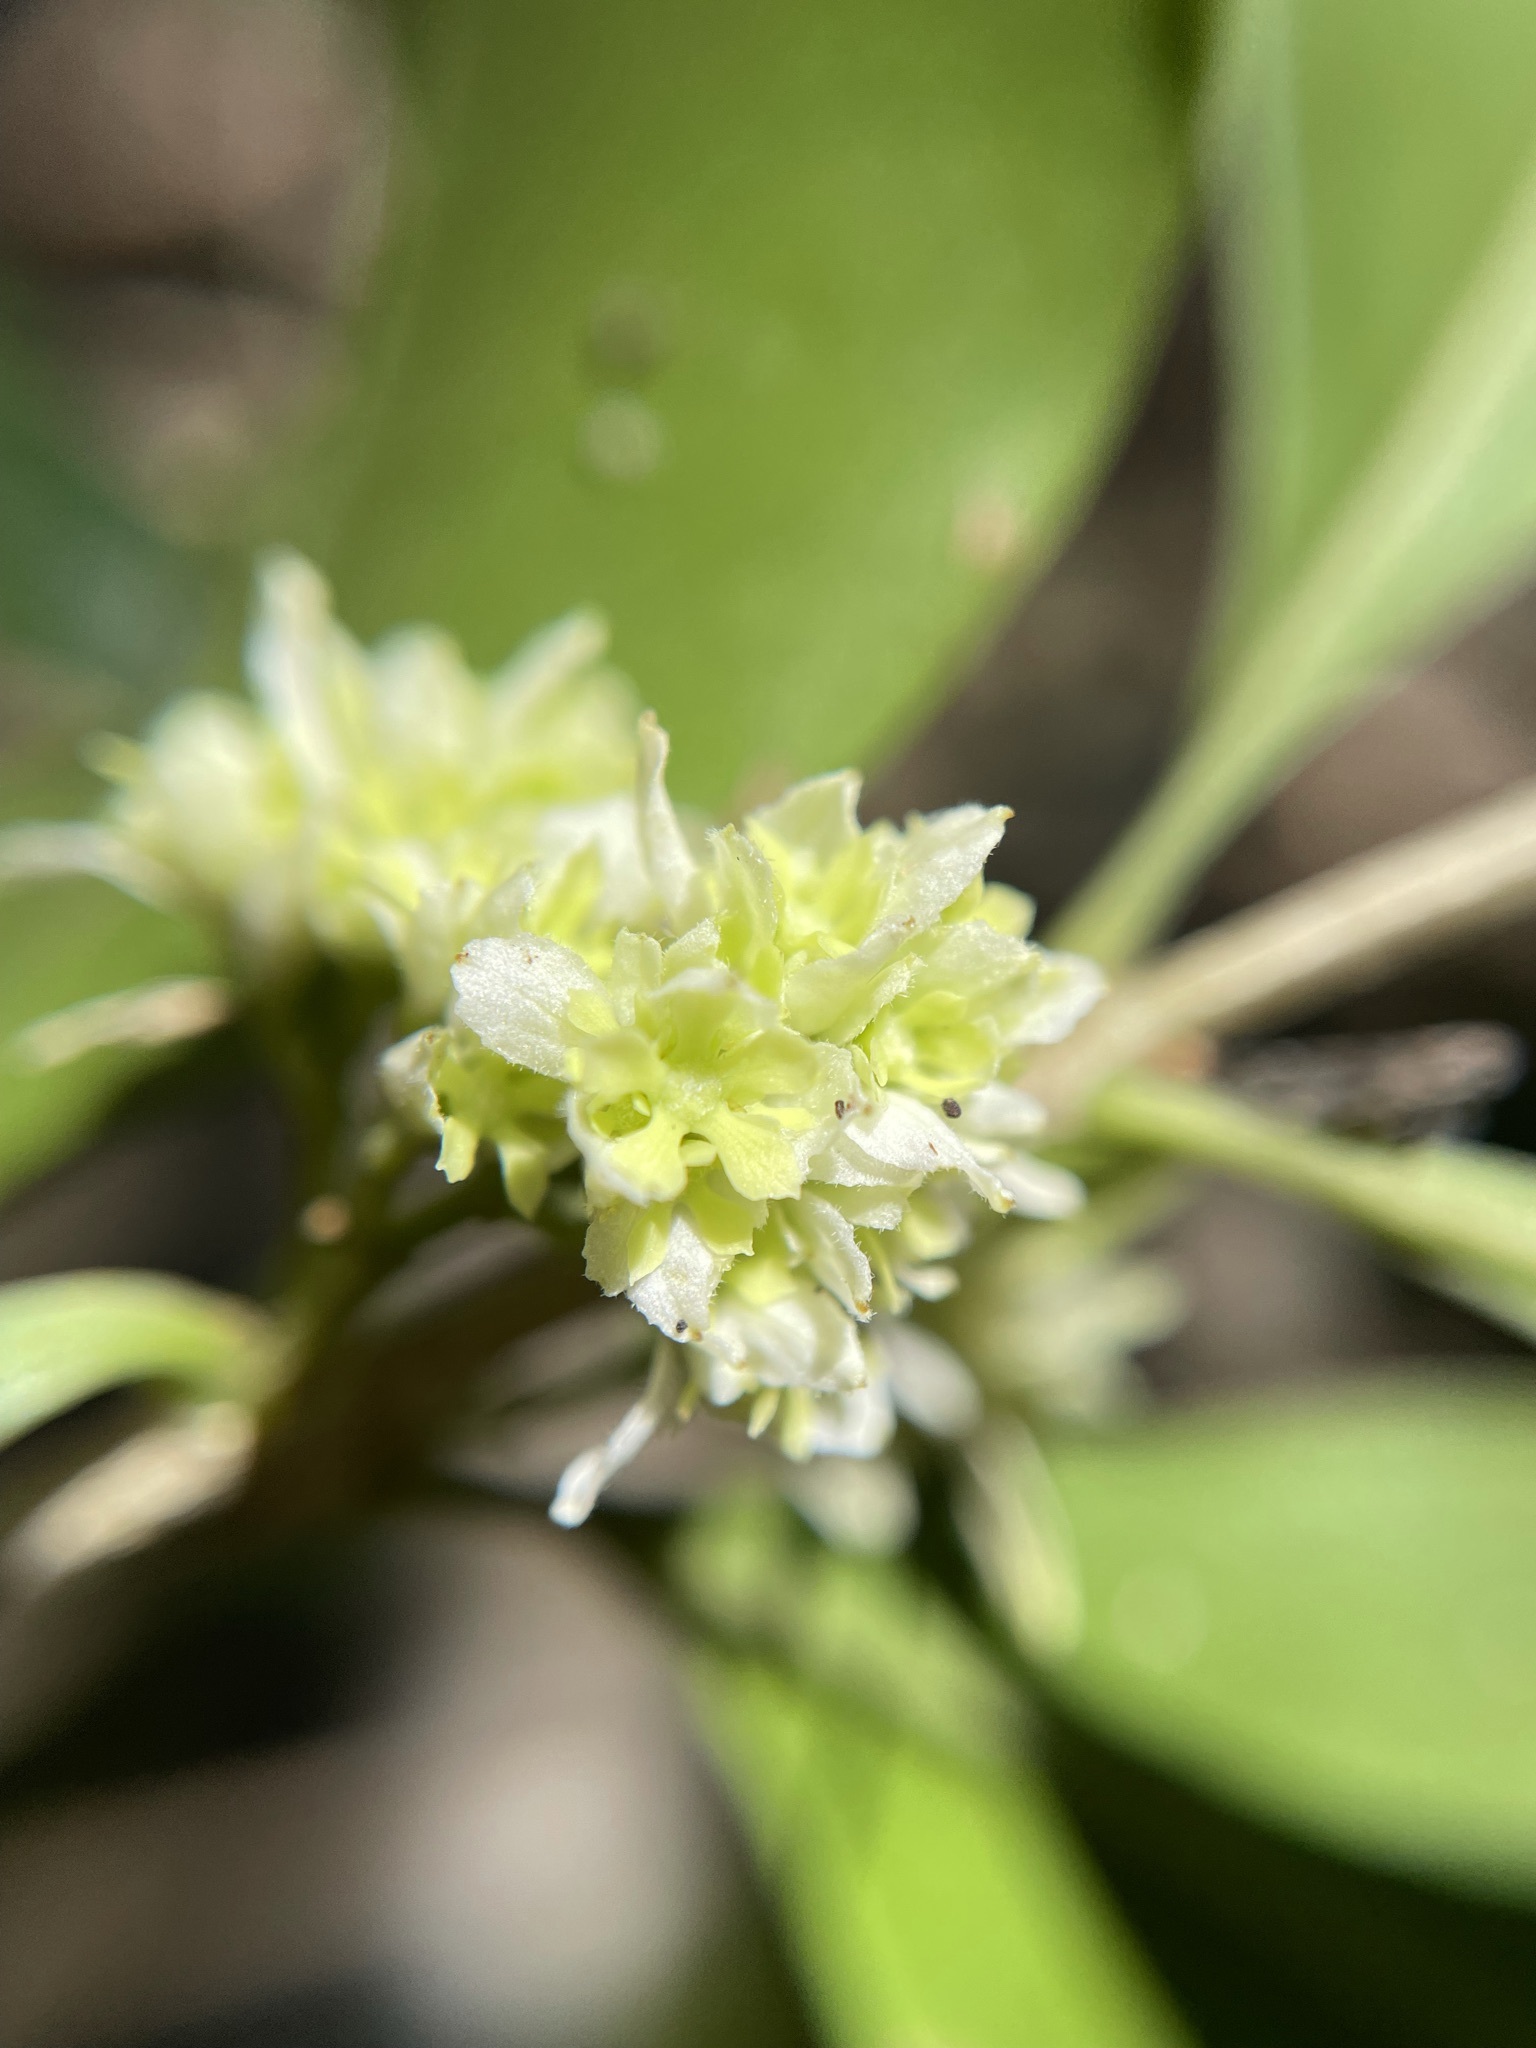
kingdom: Plantae
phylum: Tracheophyta
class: Magnoliopsida
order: Myrtales
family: Penaeaceae
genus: Olinia
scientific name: Olinia ventosa
